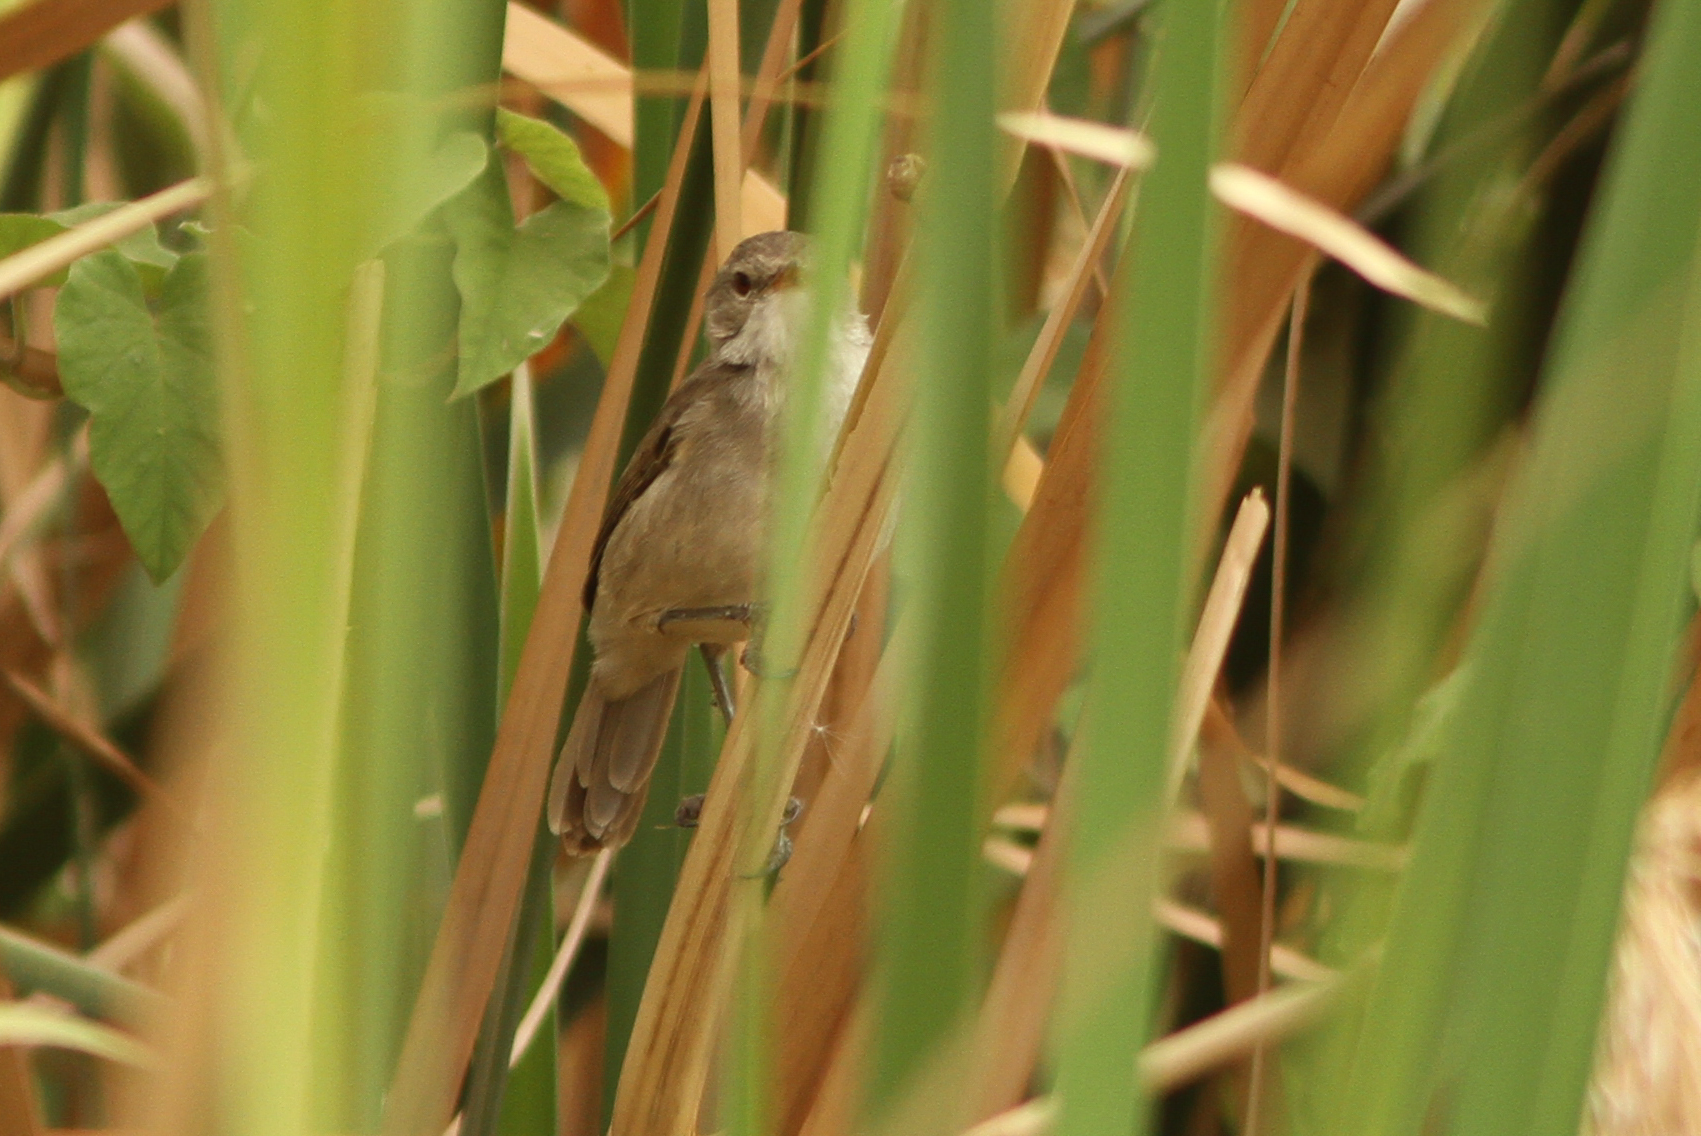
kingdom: Animalia
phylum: Chordata
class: Aves
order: Passeriformes
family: Acrocephalidae
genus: Acrocephalus
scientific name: Acrocephalus rufescens
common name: Greater swamp warbler
